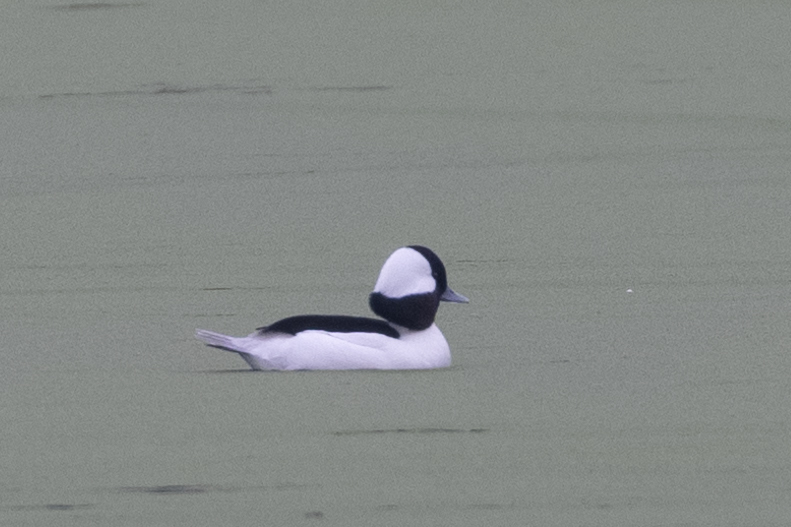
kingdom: Animalia
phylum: Chordata
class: Aves
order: Anseriformes
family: Anatidae
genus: Bucephala
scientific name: Bucephala albeola
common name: Bufflehead
